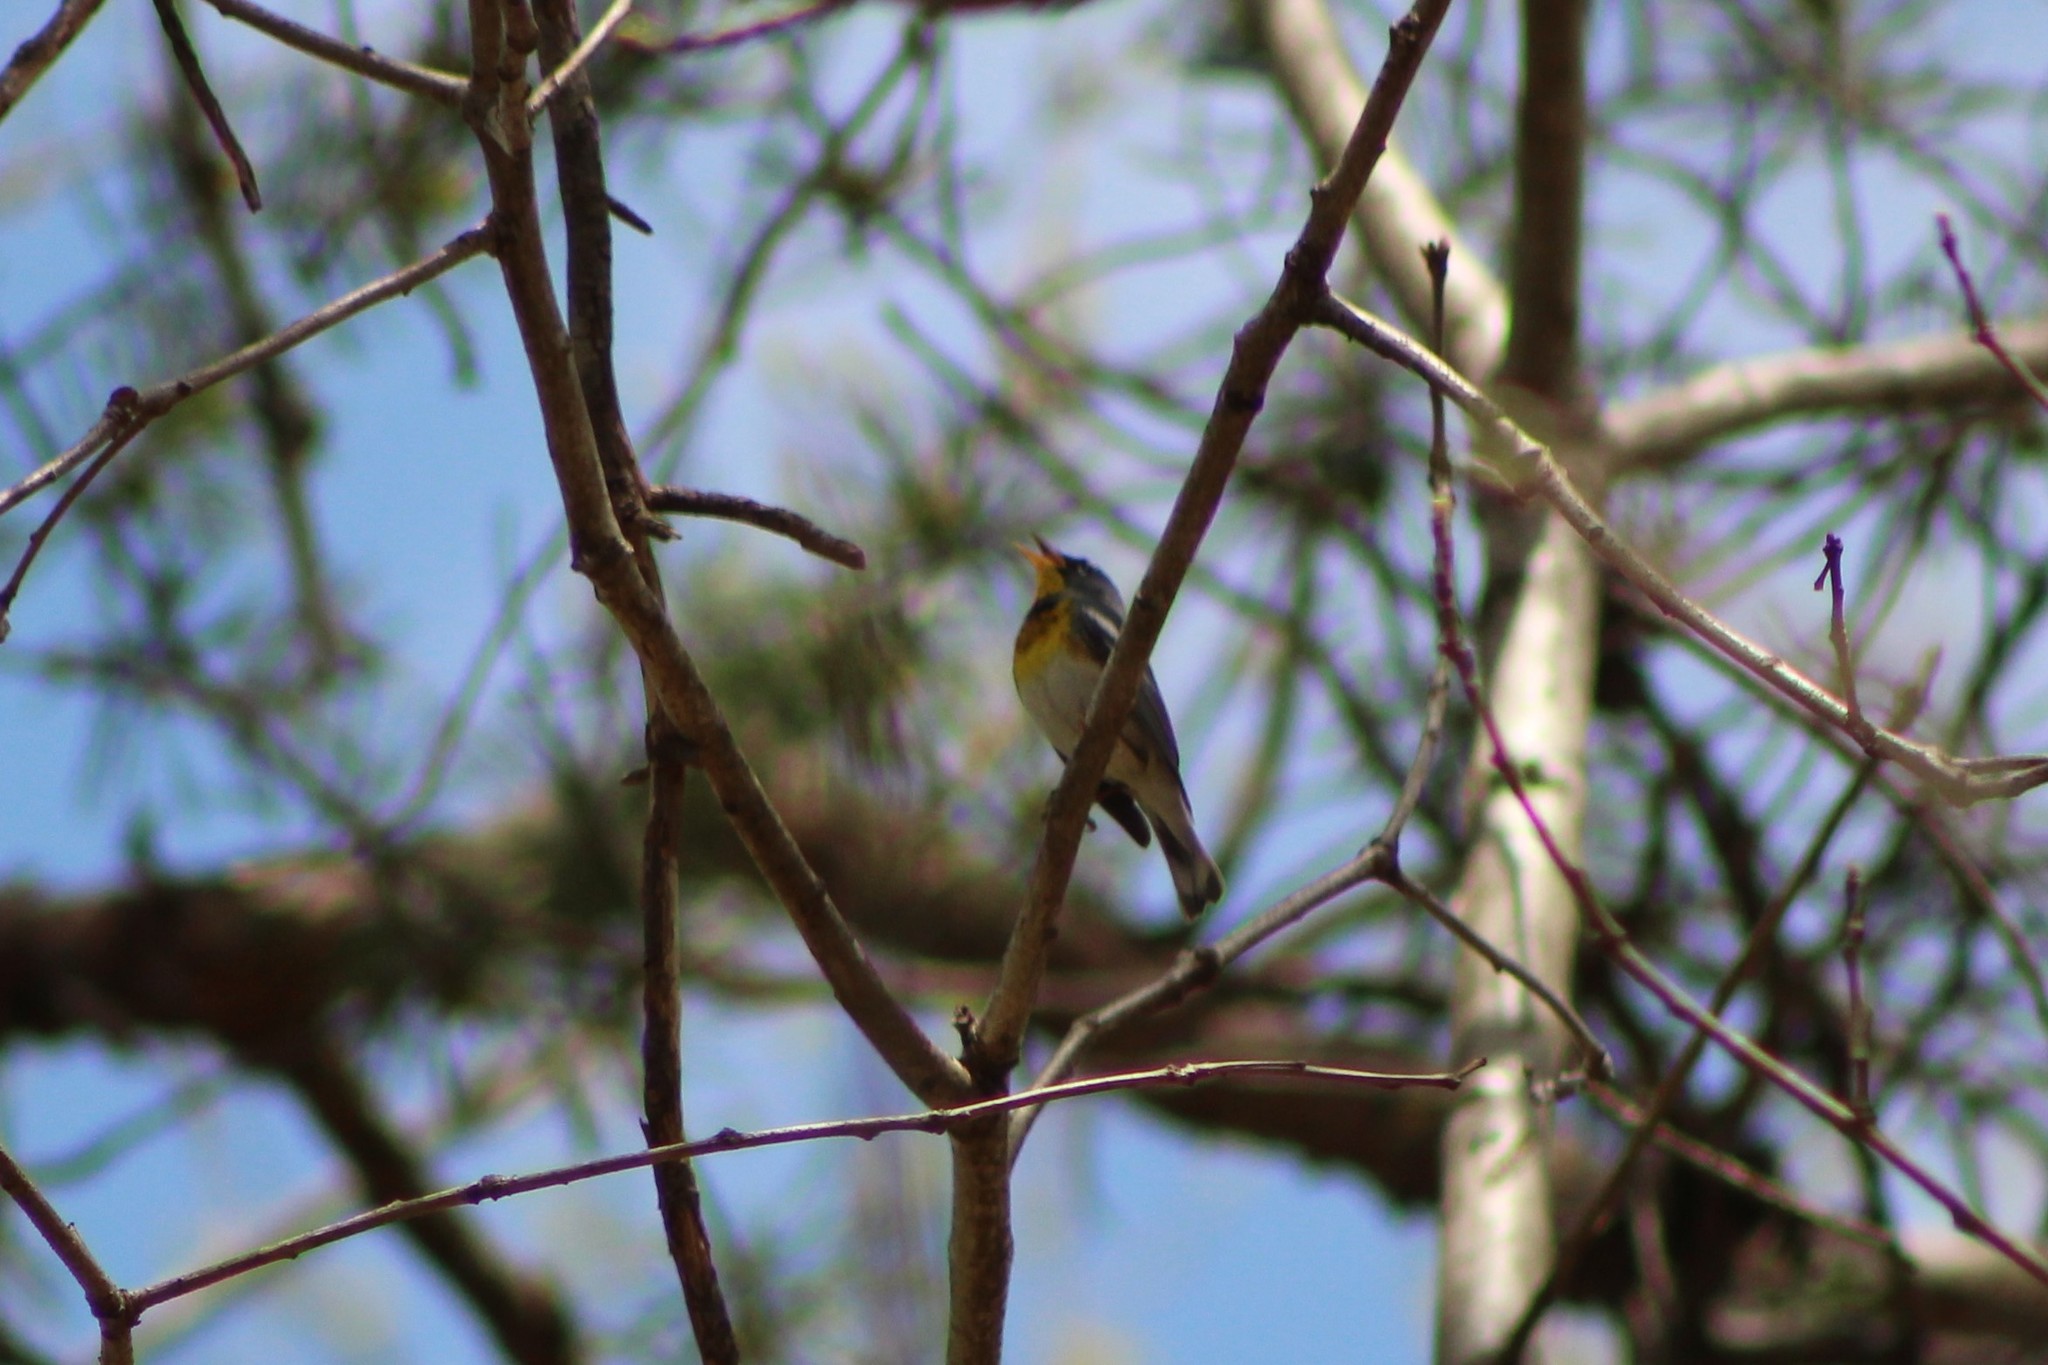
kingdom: Animalia
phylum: Chordata
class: Aves
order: Passeriformes
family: Parulidae
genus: Setophaga
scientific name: Setophaga americana
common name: Northern parula
